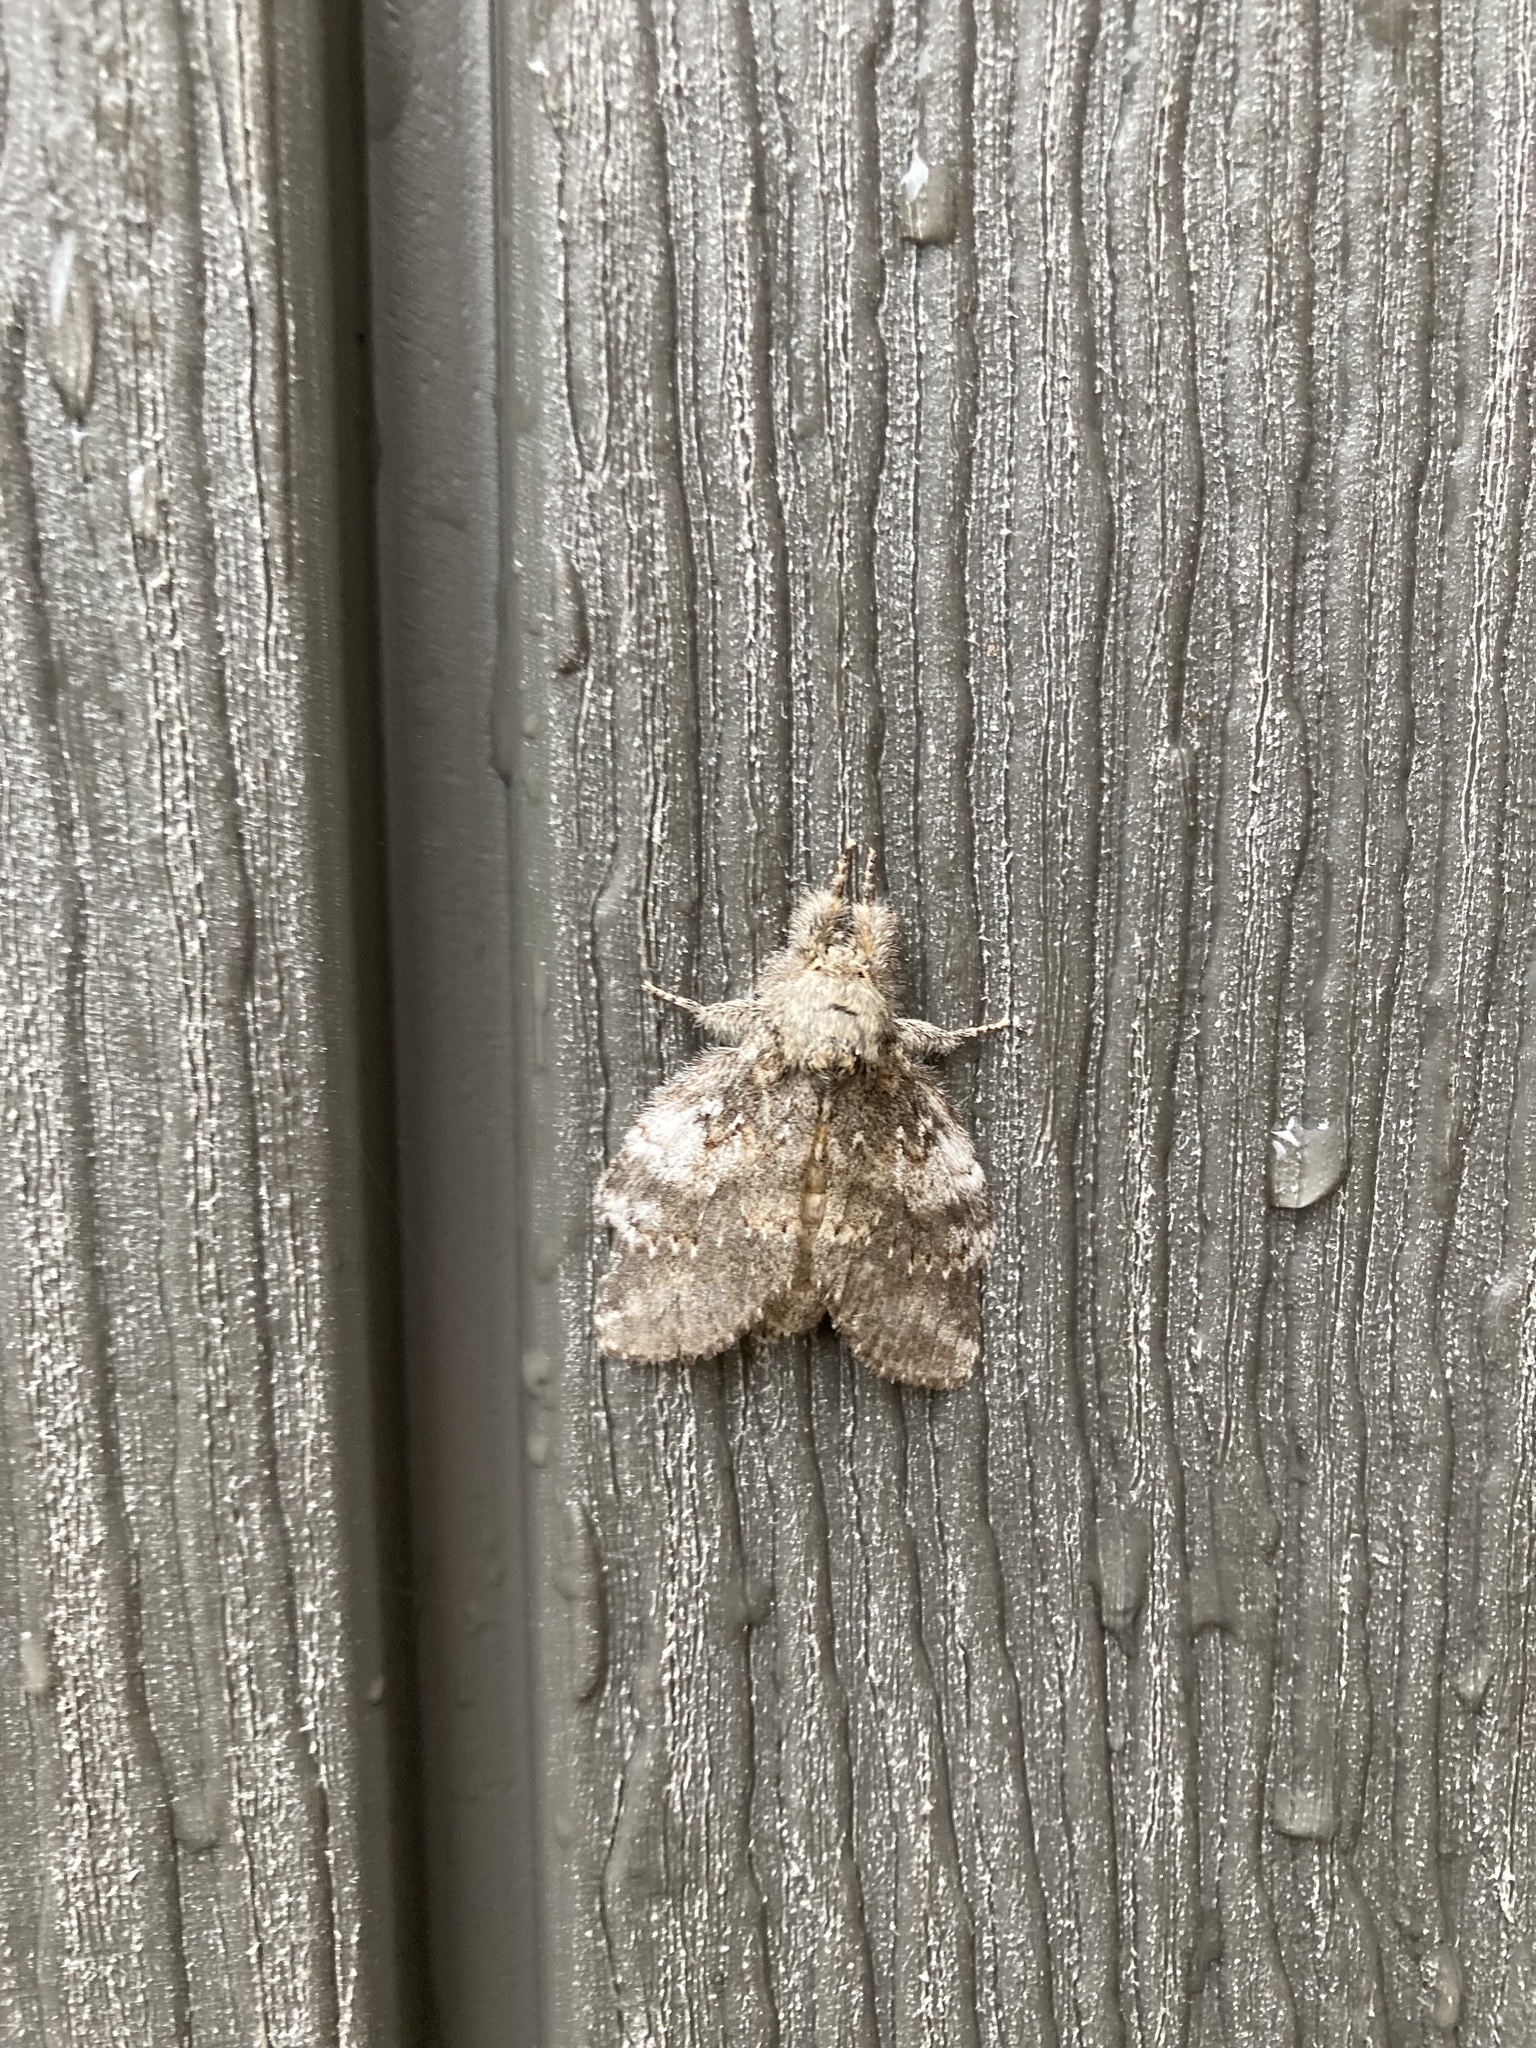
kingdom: Animalia
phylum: Arthropoda
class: Insecta
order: Lepidoptera
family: Notodontidae
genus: Peridea
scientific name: Peridea angulosa
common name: Angulose prominent
